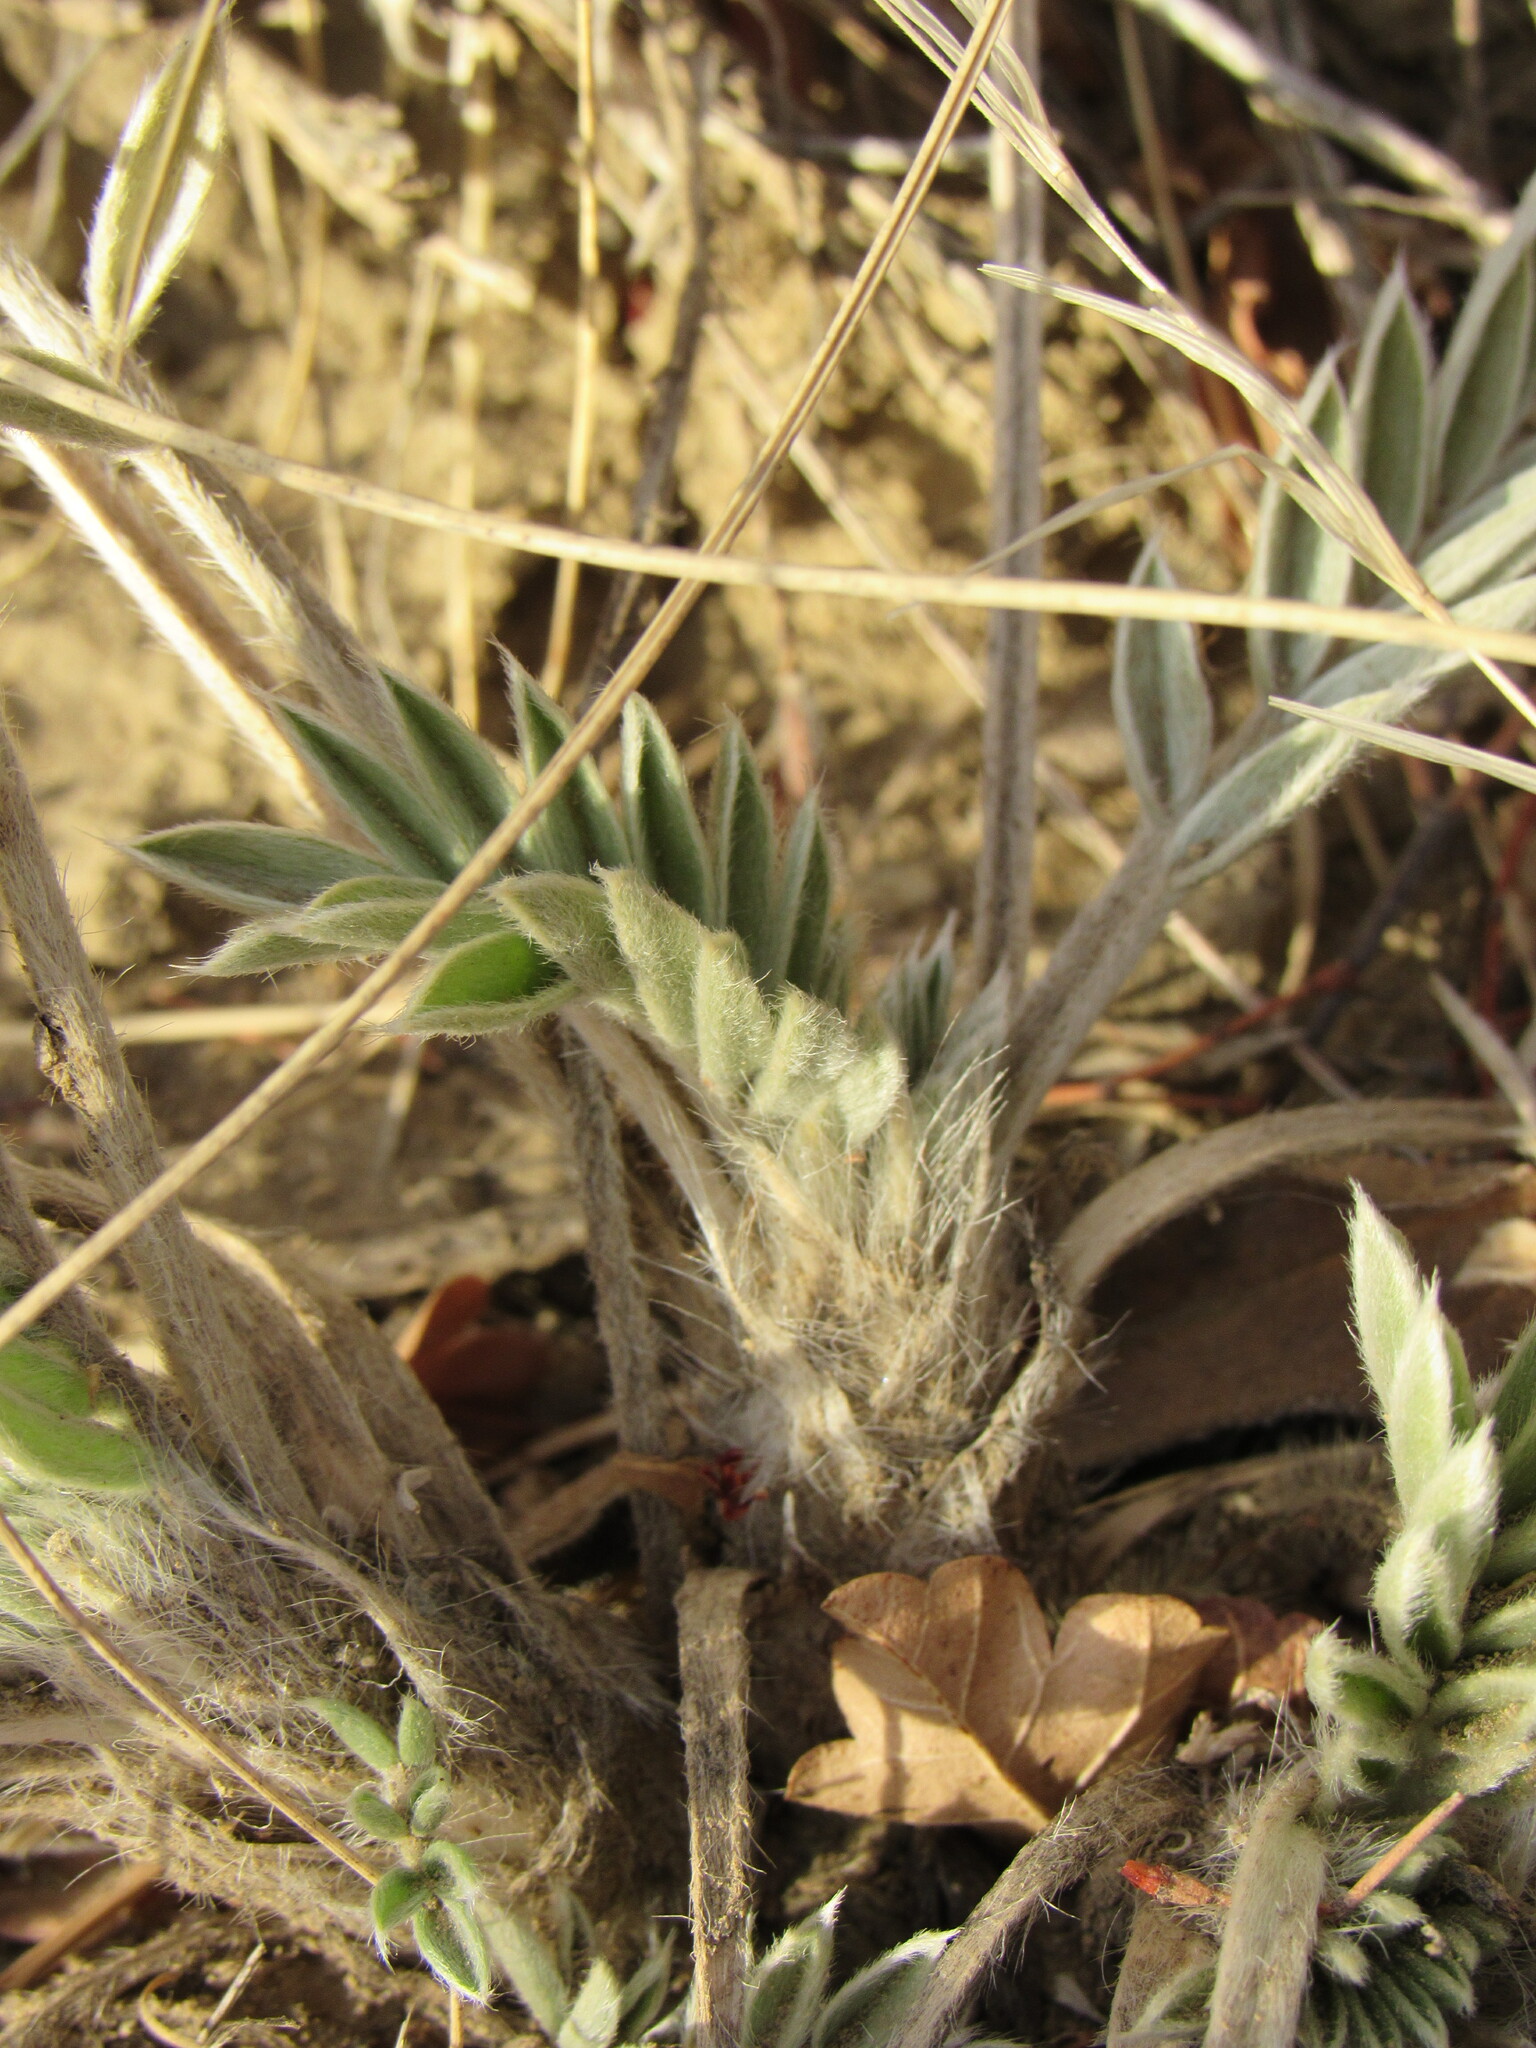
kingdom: Plantae
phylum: Tracheophyta
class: Magnoliopsida
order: Fabales
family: Fabaceae
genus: Oxytropis
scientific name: Oxytropis
